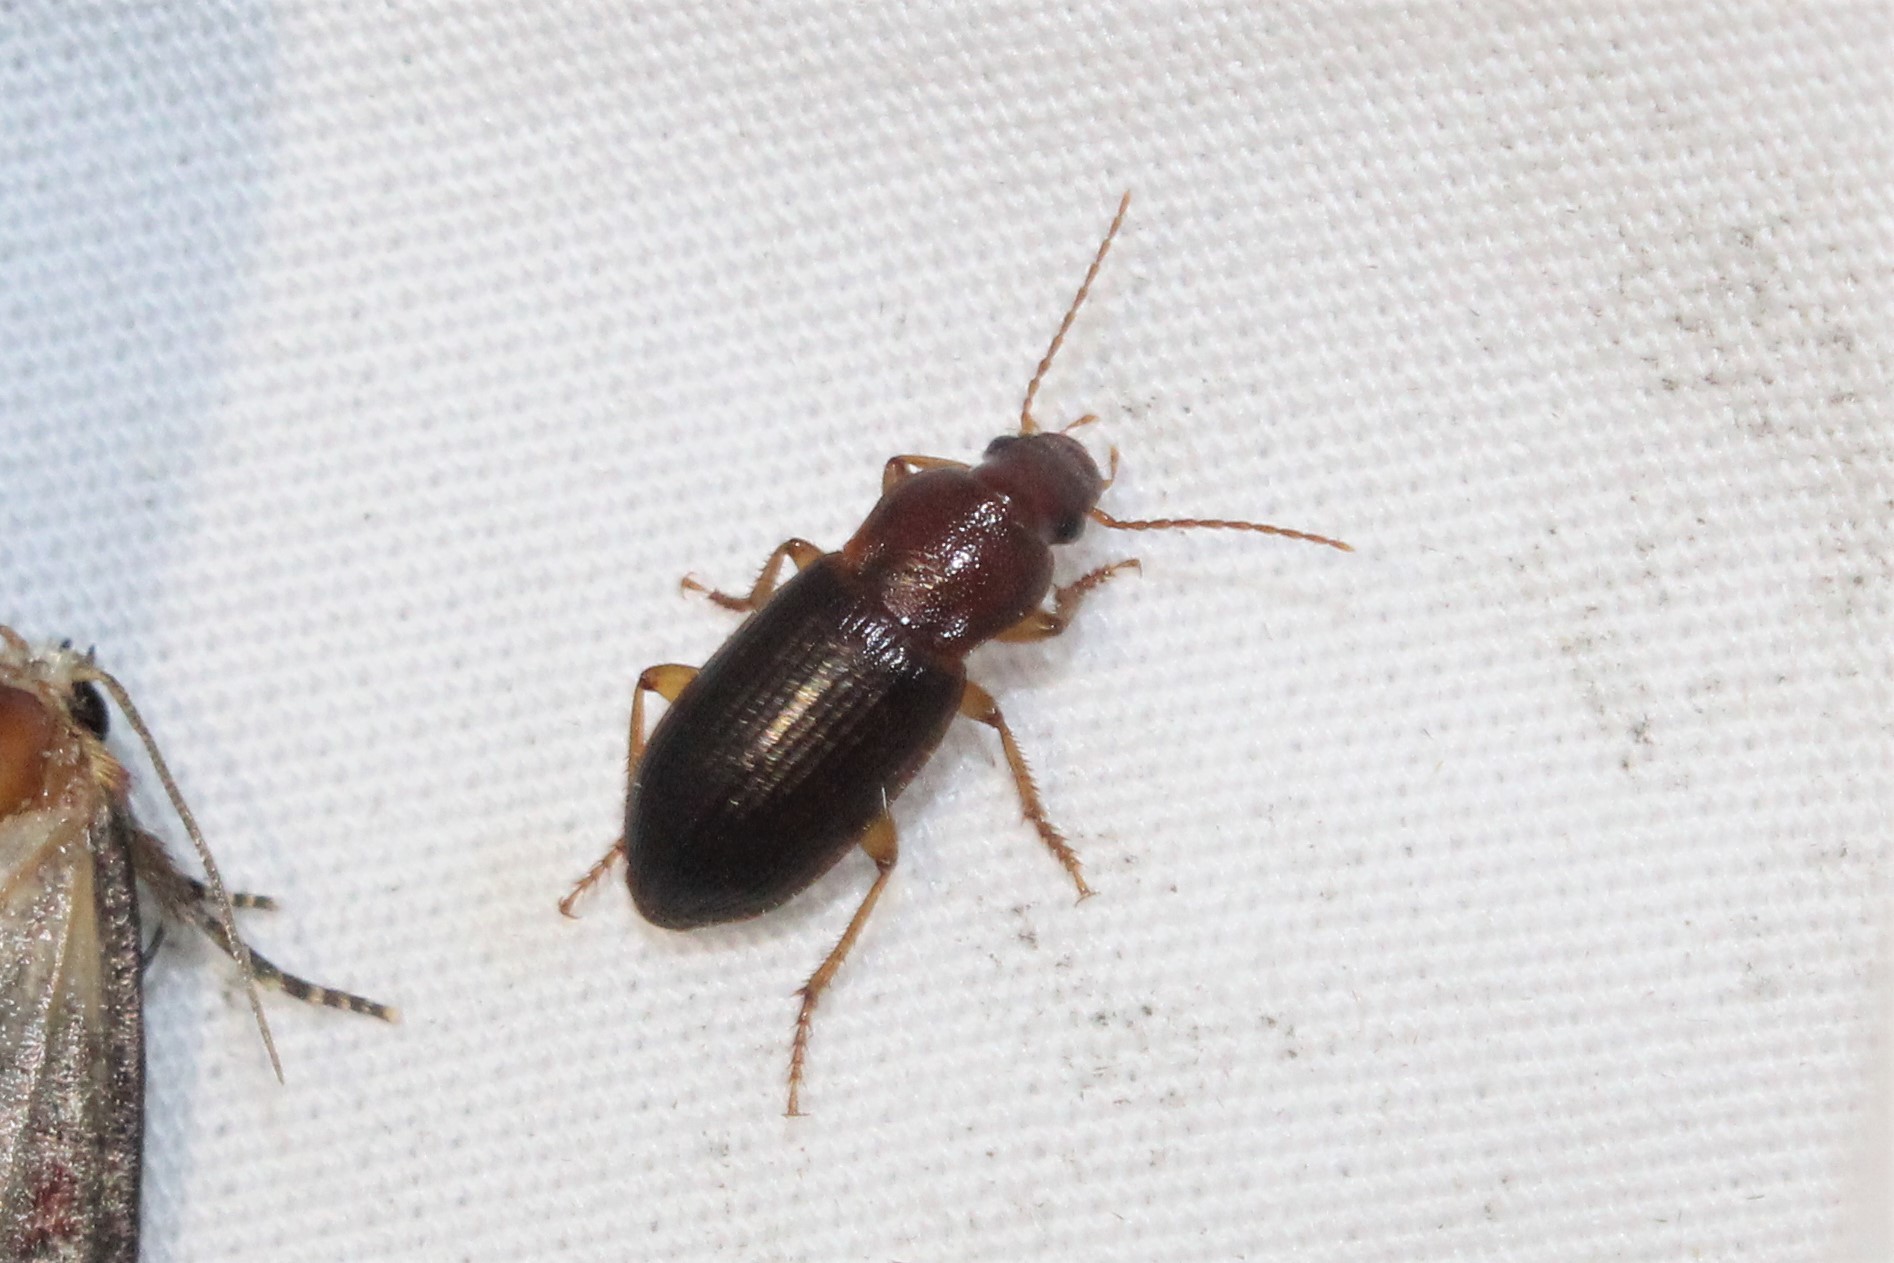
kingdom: Animalia
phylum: Arthropoda
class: Insecta
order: Coleoptera
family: Carabidae
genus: Ophonus
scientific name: Ophonus puncticeps
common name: Puncture-headed harp ground beetle
